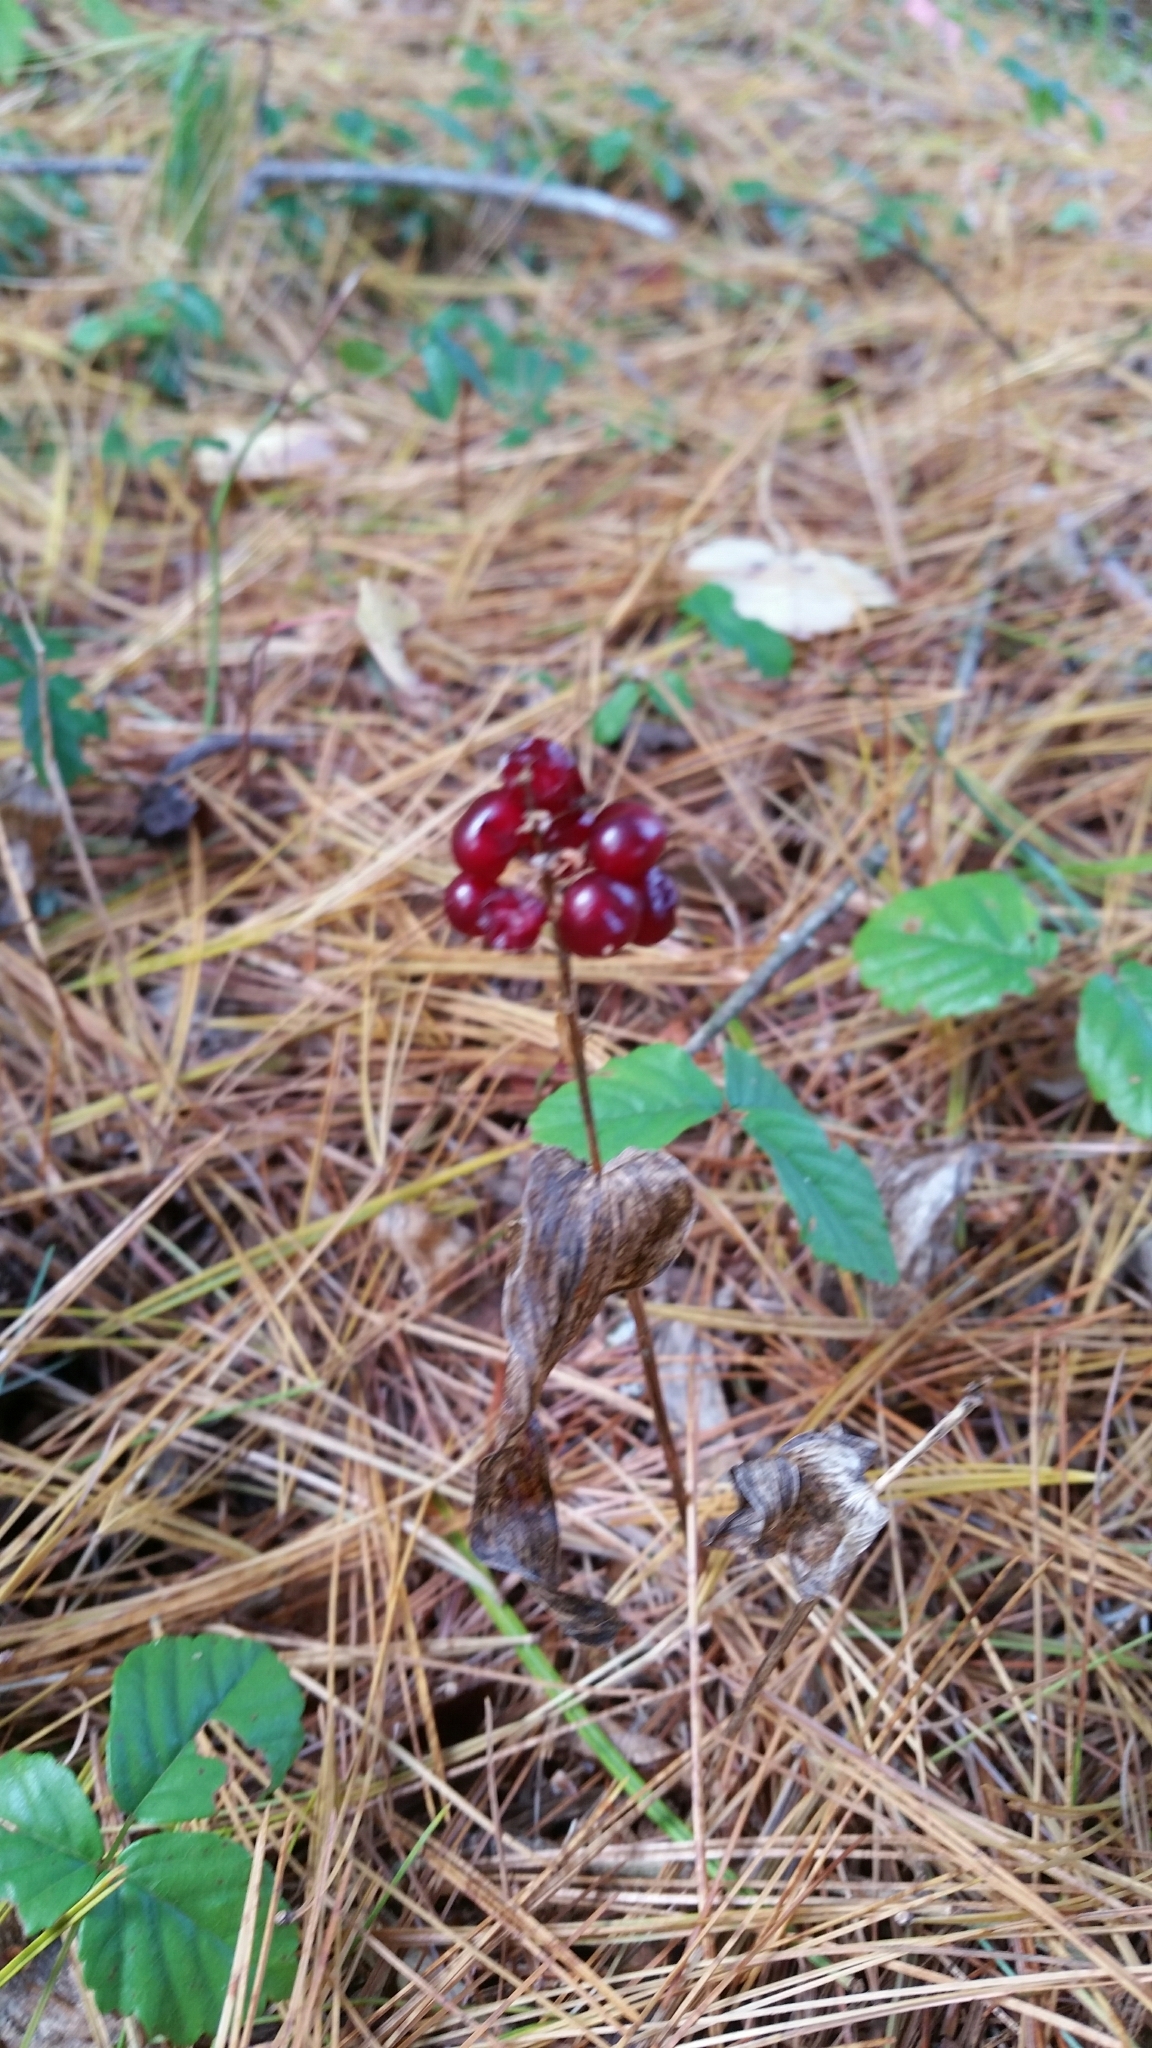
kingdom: Plantae
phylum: Tracheophyta
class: Liliopsida
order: Asparagales
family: Asparagaceae
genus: Maianthemum
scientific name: Maianthemum canadense
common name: False lily-of-the-valley
